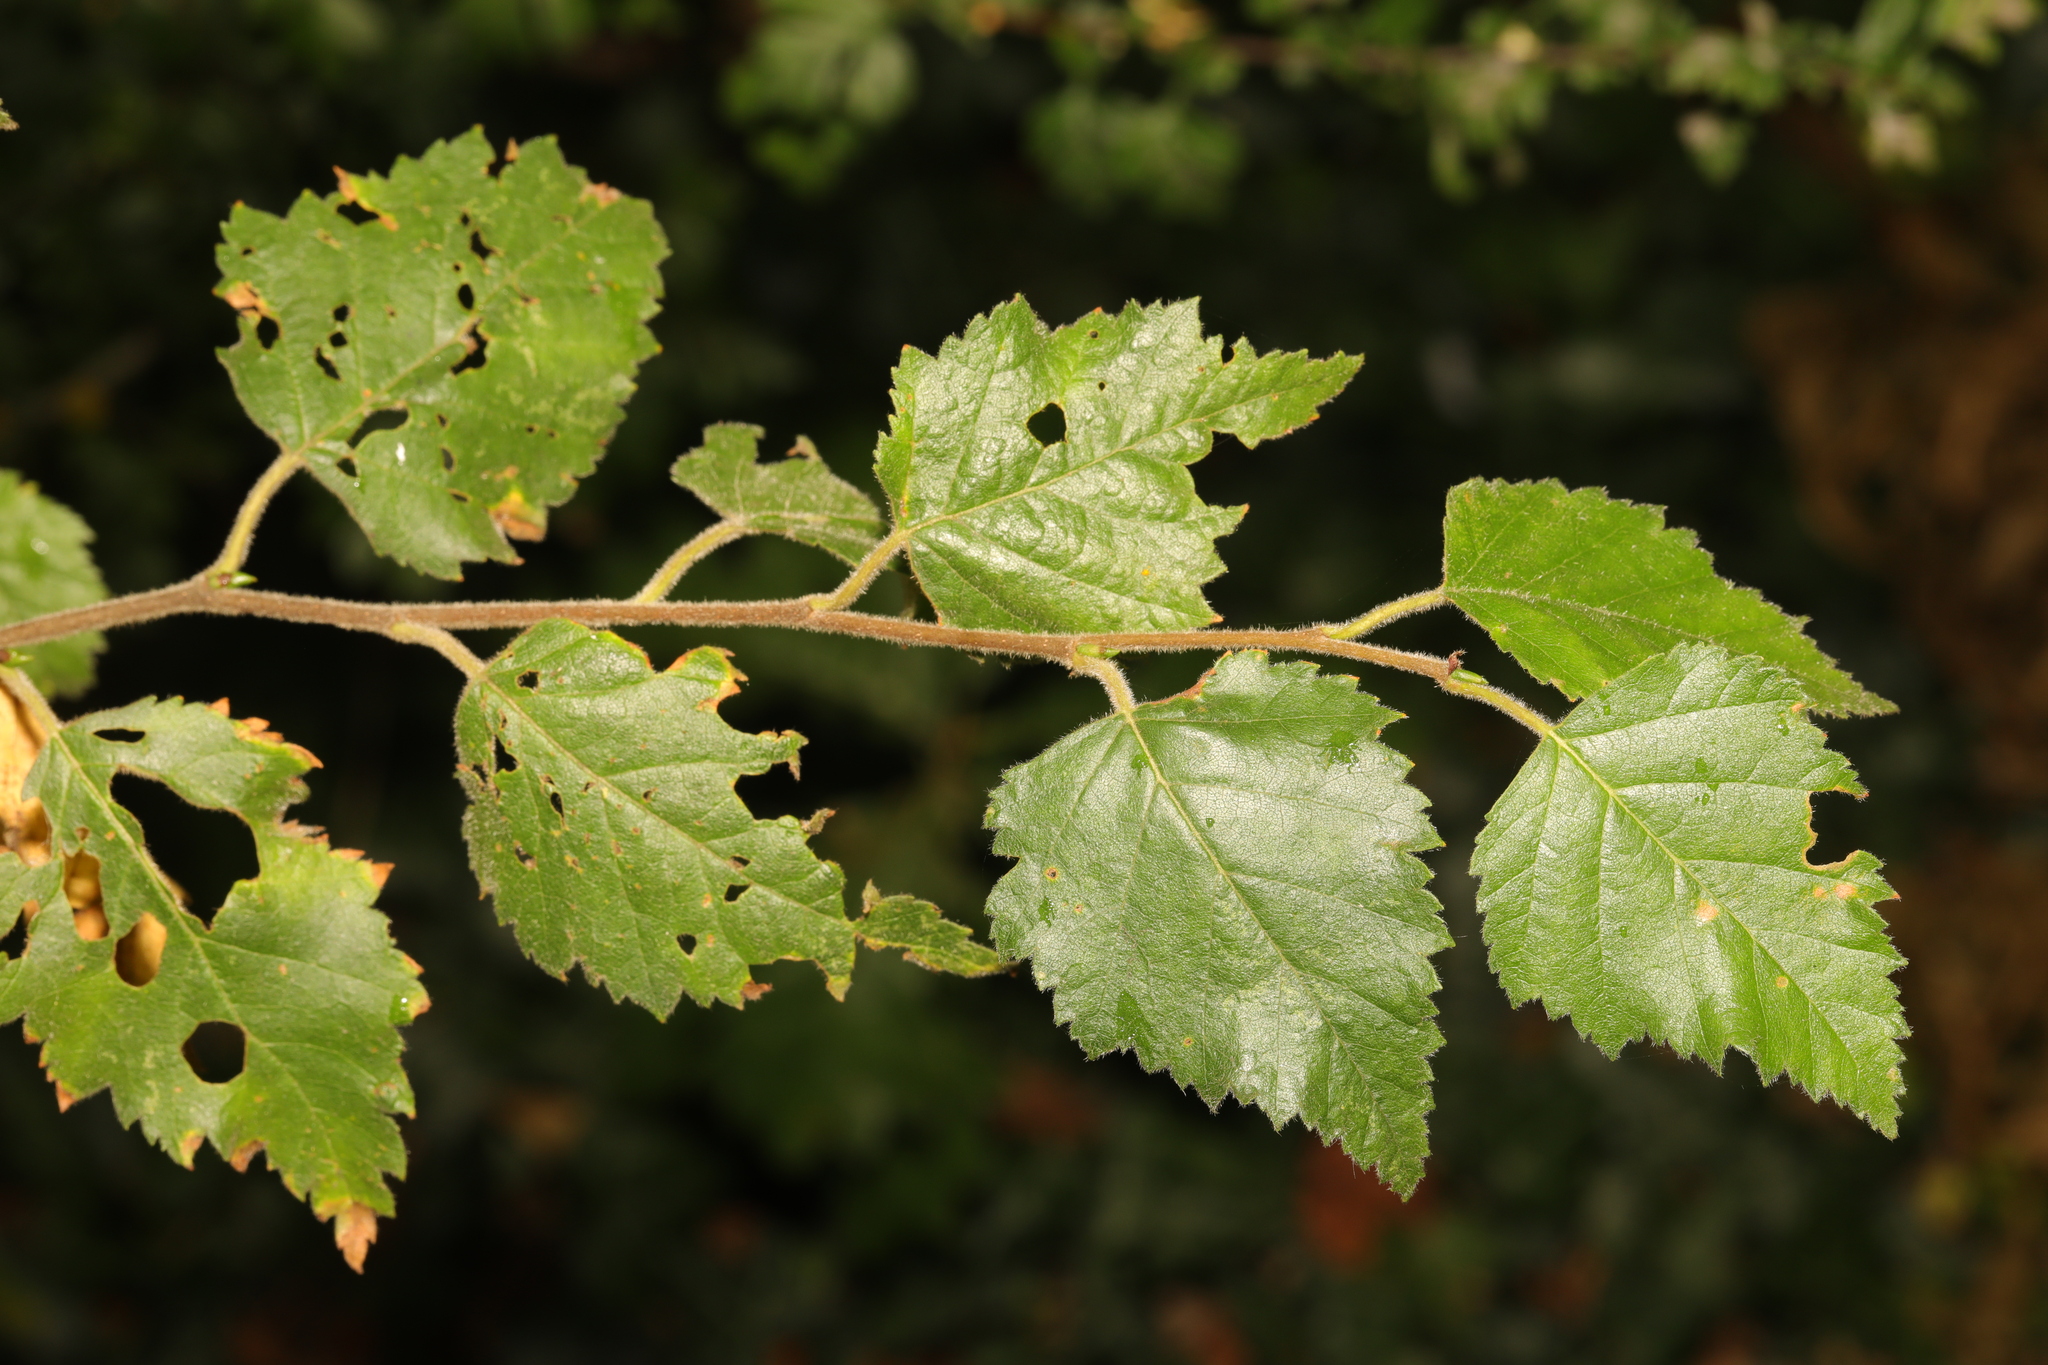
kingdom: Plantae
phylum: Tracheophyta
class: Magnoliopsida
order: Fagales
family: Betulaceae
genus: Betula
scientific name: Betula pubescens
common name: Downy birch
